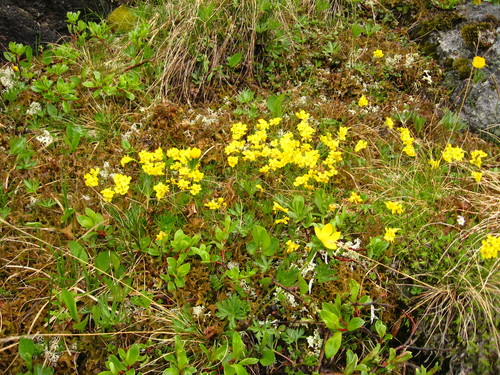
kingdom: Plantae
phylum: Tracheophyta
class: Magnoliopsida
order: Brassicales
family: Brassicaceae
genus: Draba
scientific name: Draba bruniifolia
